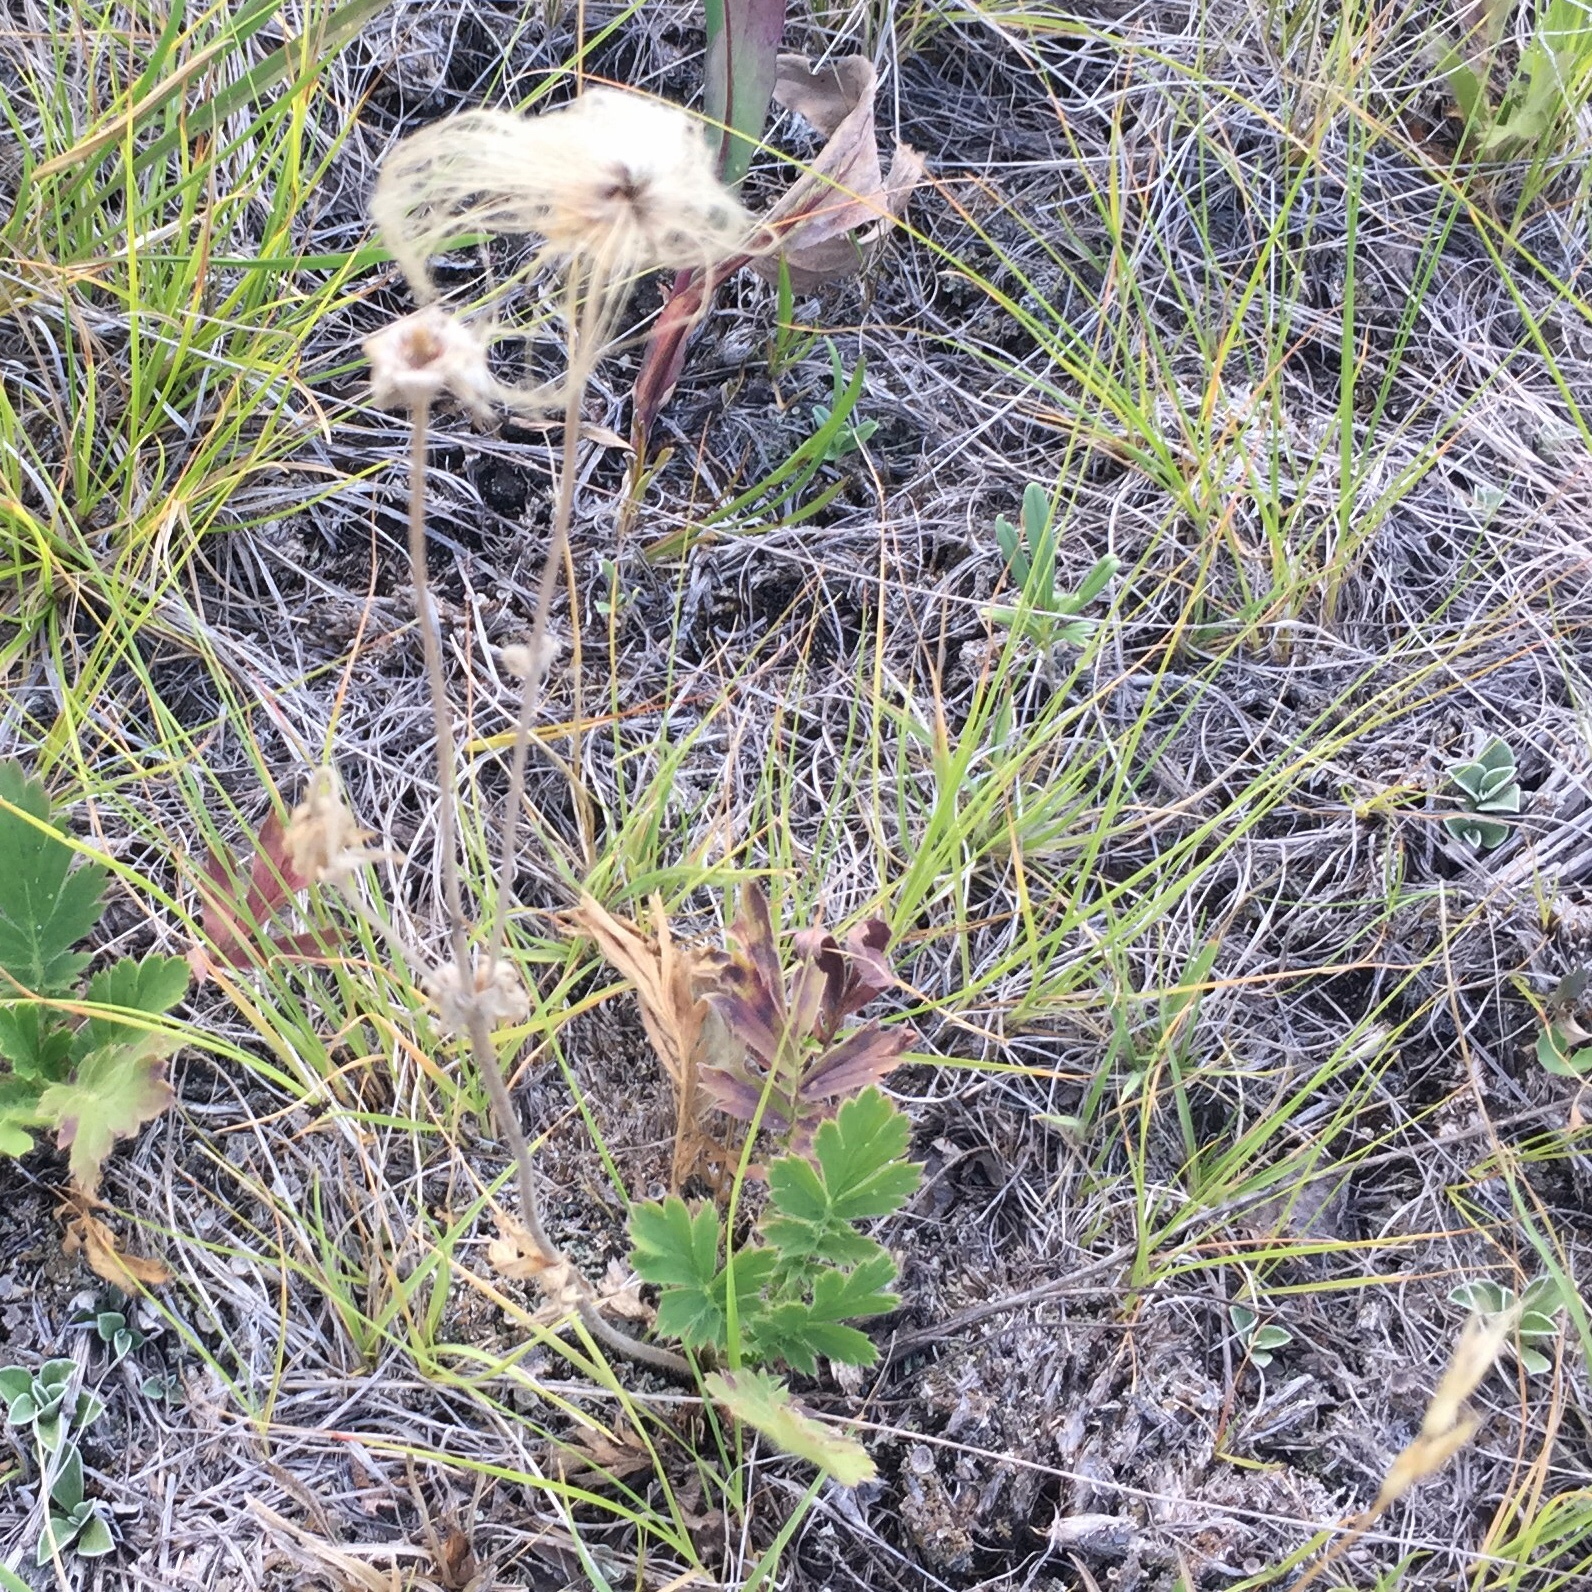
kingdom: Plantae
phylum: Tracheophyta
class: Magnoliopsida
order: Rosales
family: Rosaceae
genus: Geum
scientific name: Geum triflorum
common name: Old man's whiskers
